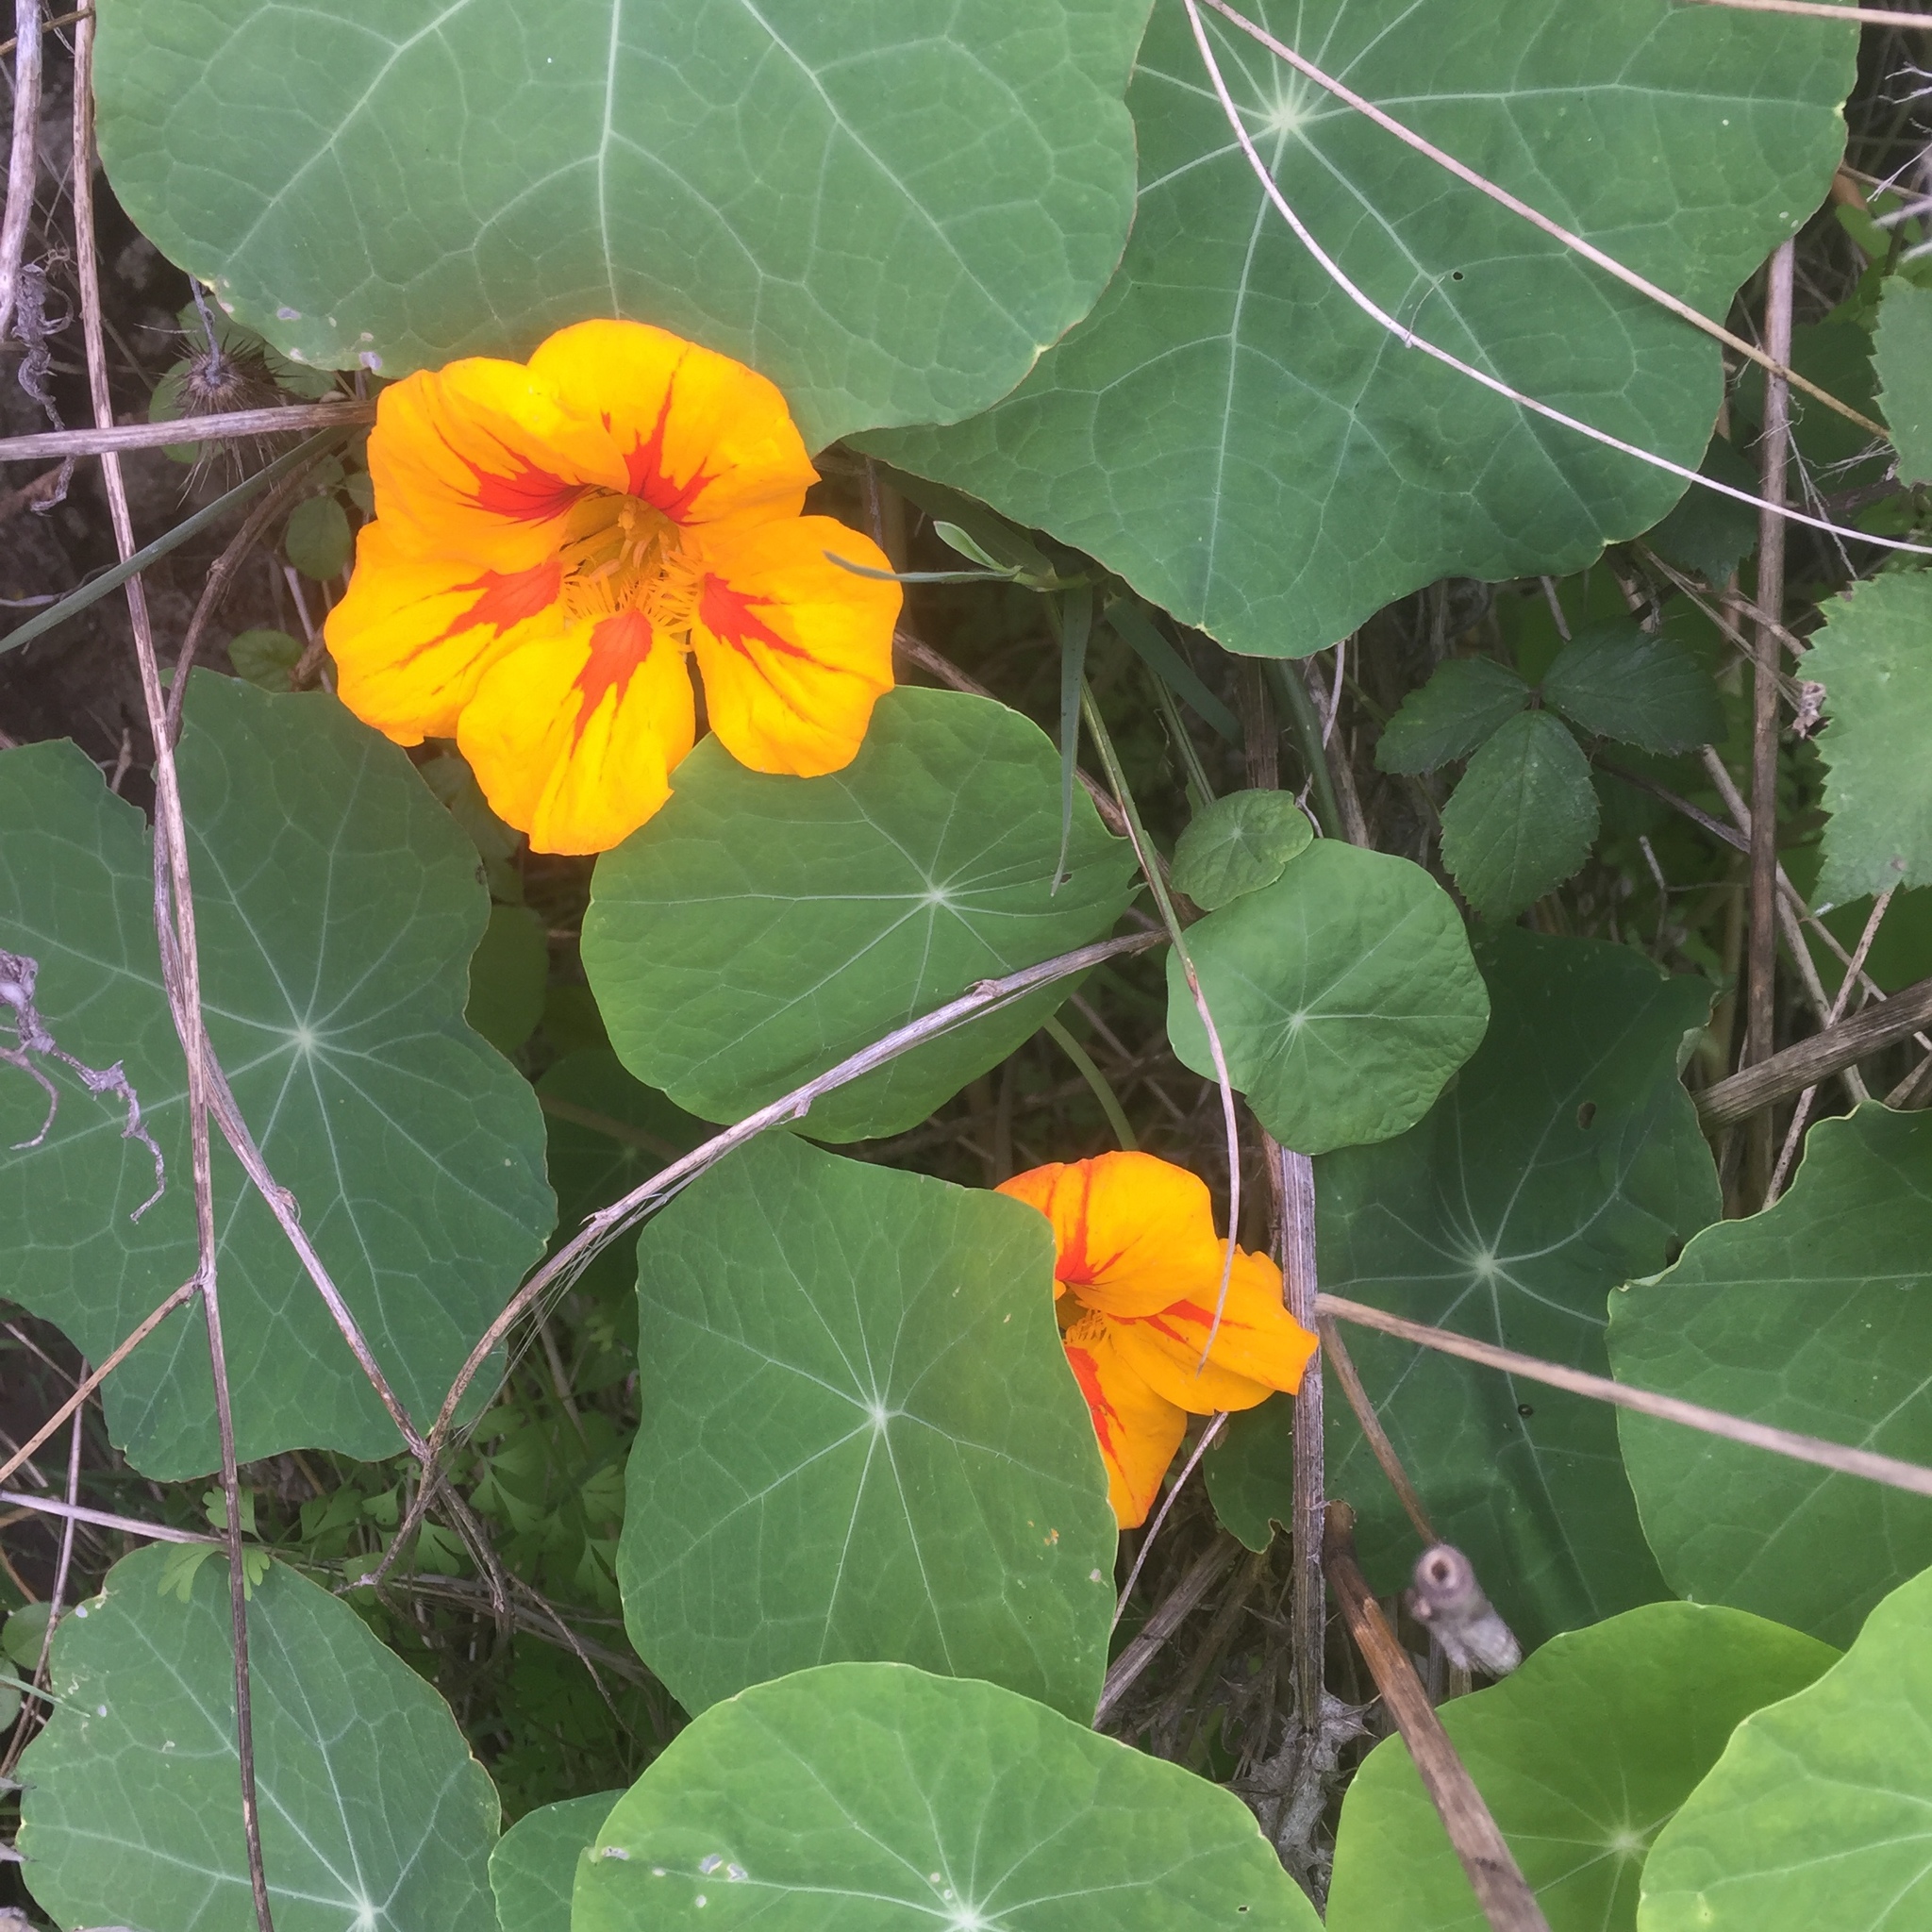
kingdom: Plantae
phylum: Tracheophyta
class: Magnoliopsida
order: Brassicales
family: Tropaeolaceae
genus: Tropaeolum
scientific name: Tropaeolum majus
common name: Nasturtium
